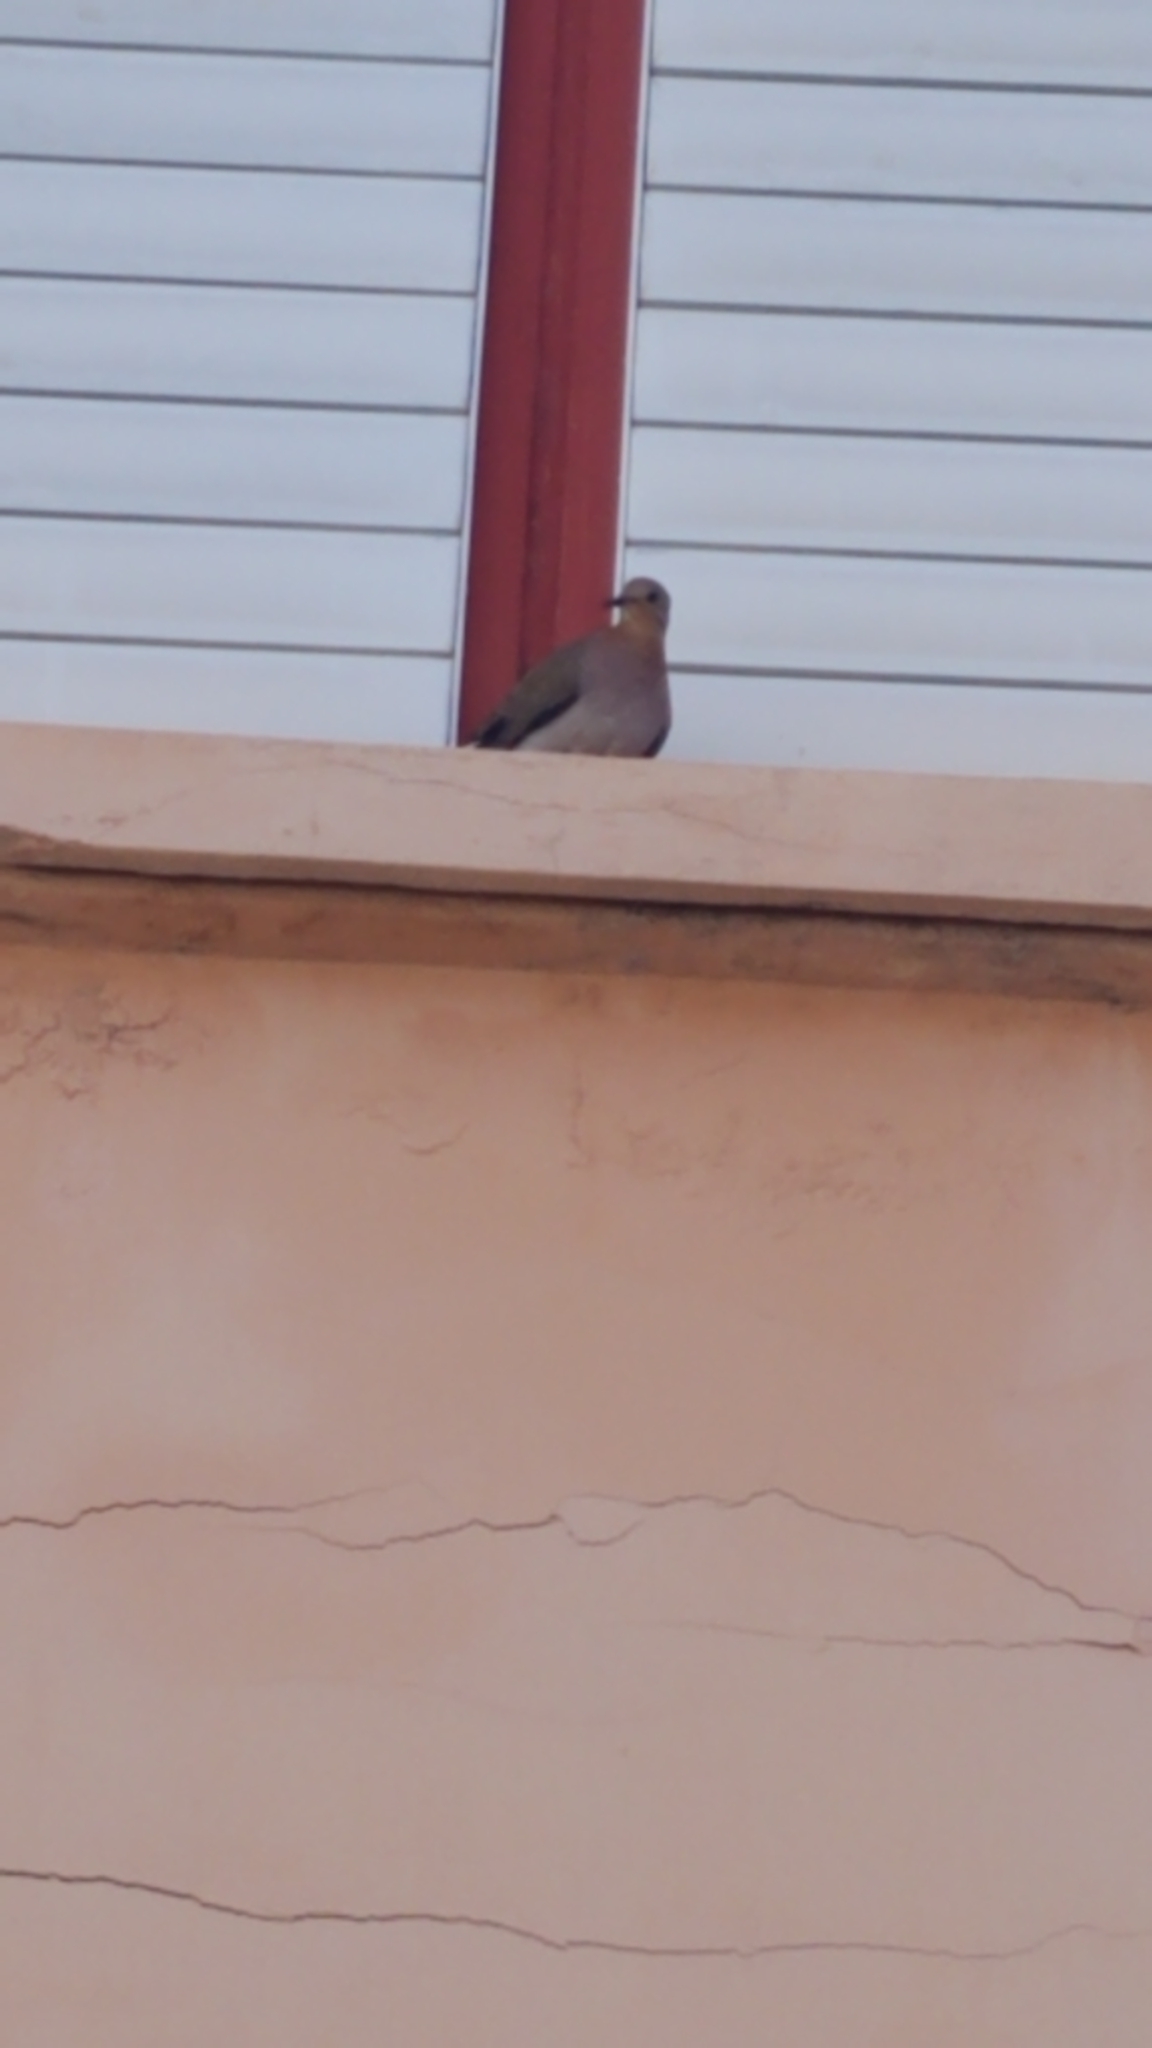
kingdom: Animalia
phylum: Chordata
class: Aves
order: Columbiformes
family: Columbidae
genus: Zenaida
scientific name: Zenaida aurita
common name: Zenaida dove
